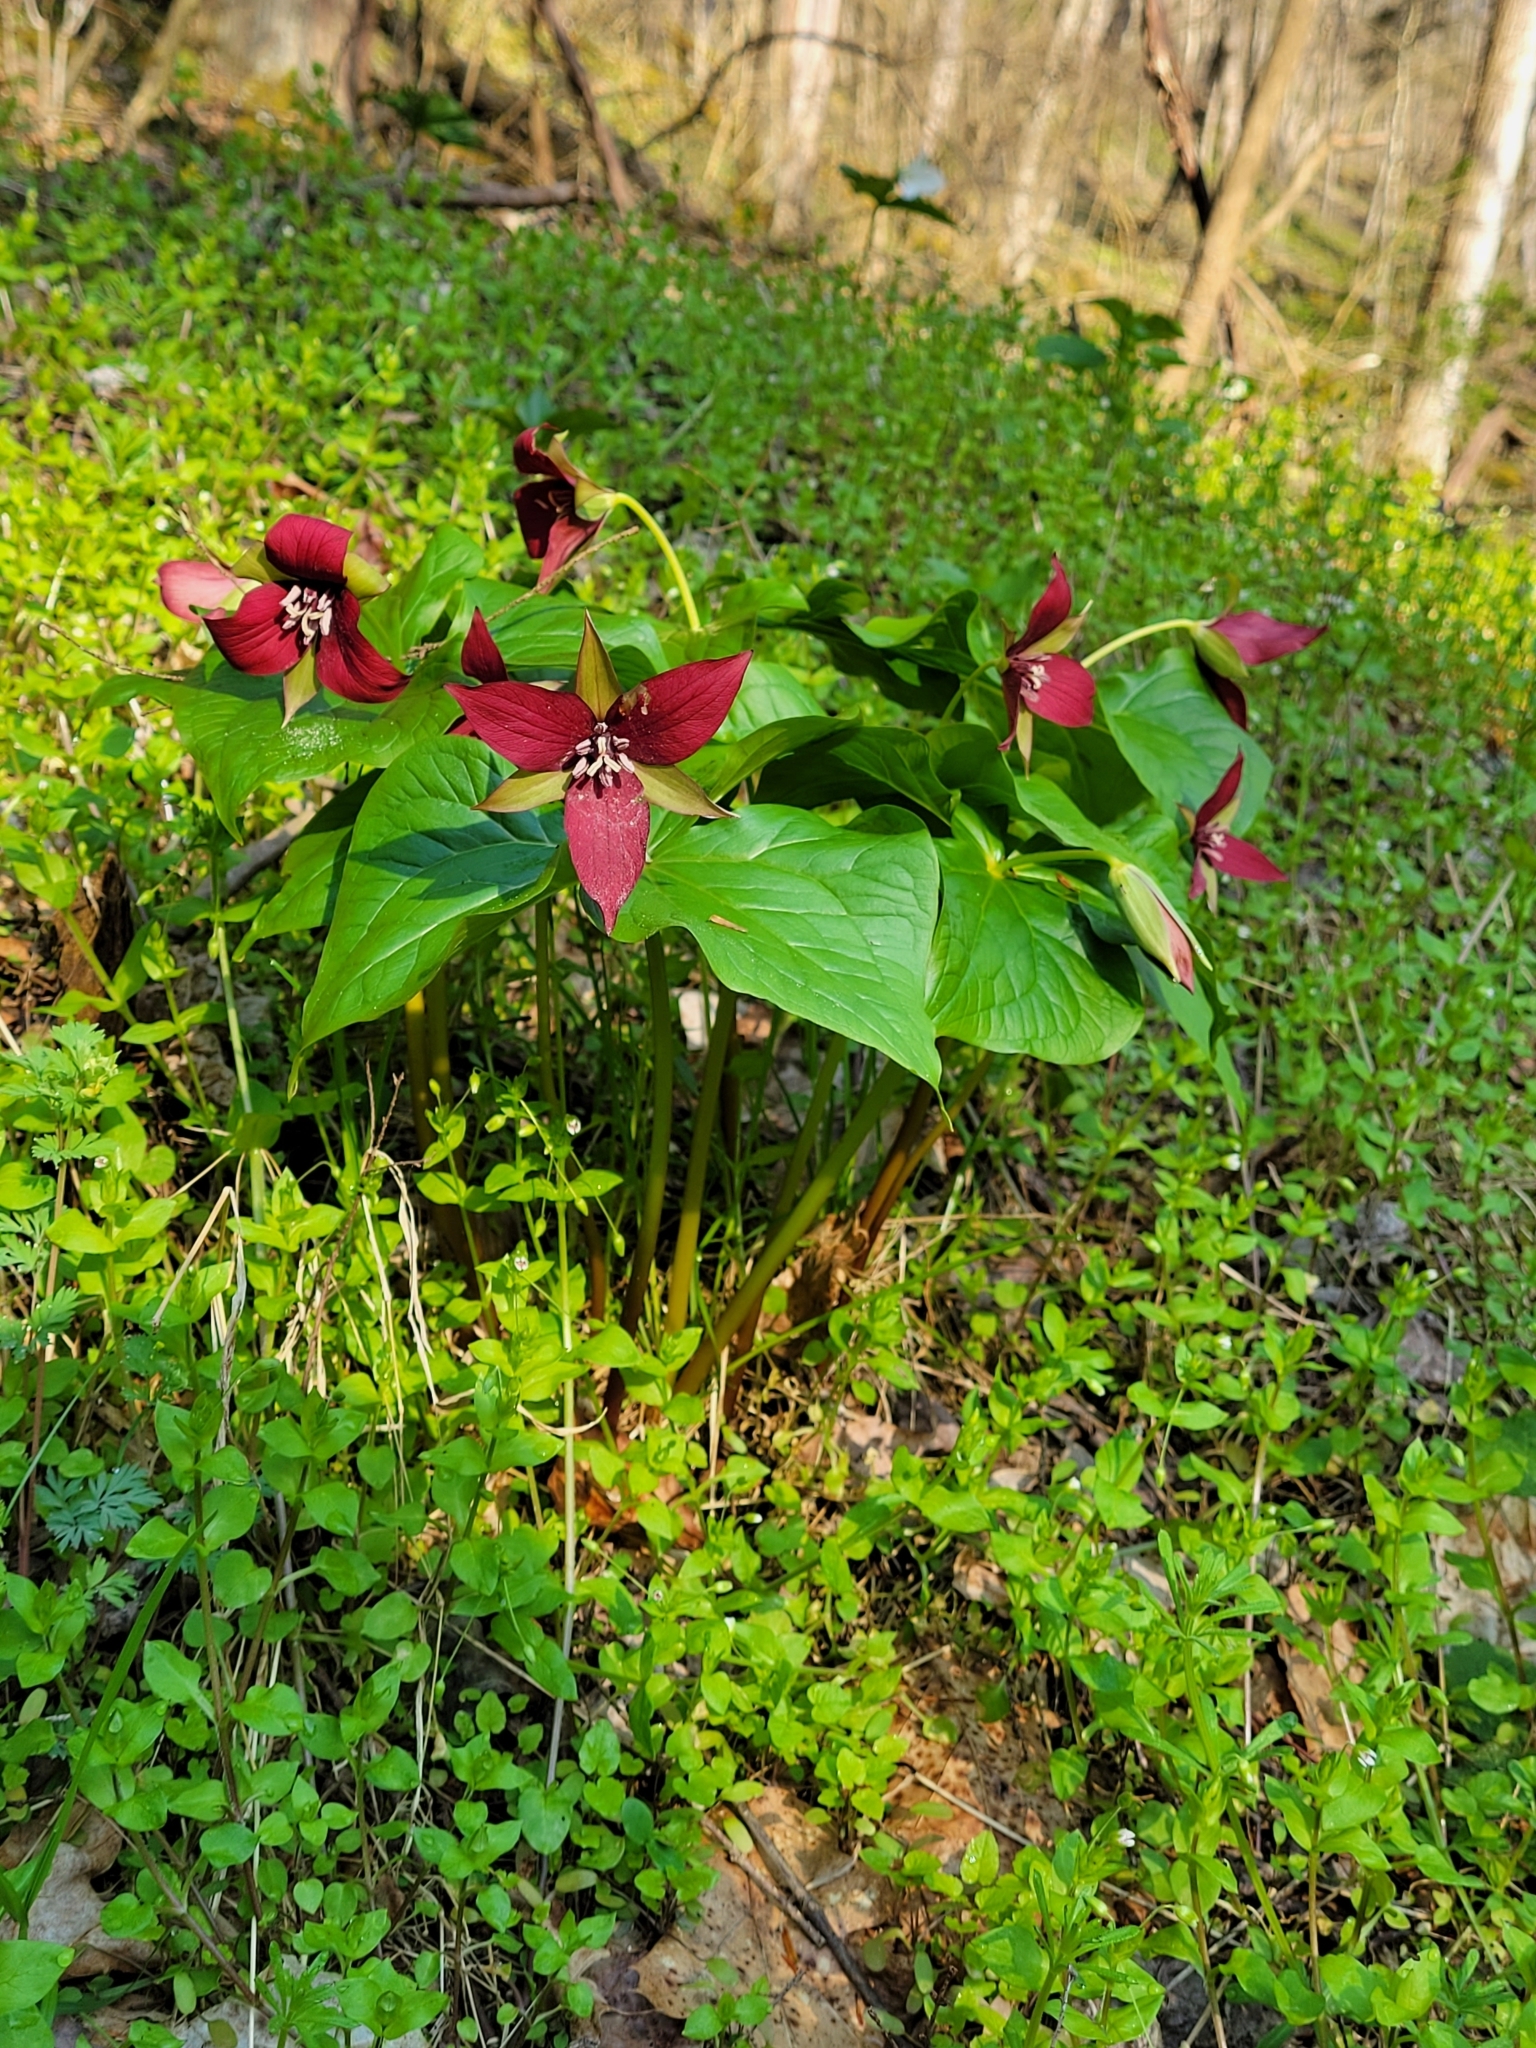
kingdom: Plantae
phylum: Tracheophyta
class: Liliopsida
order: Liliales
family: Melanthiaceae
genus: Trillium
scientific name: Trillium erectum
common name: Purple trillium
